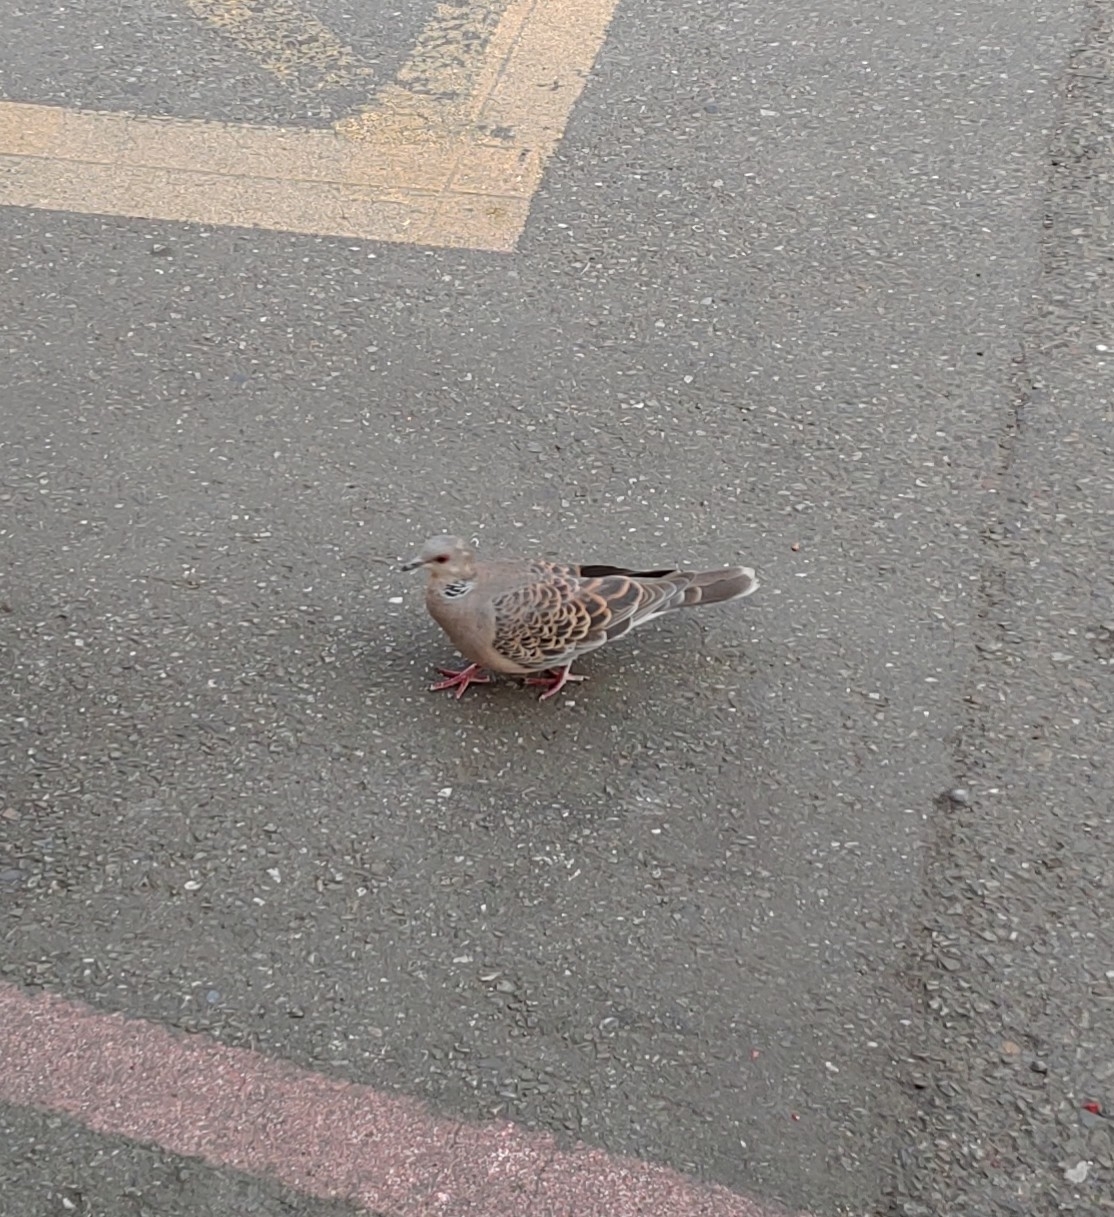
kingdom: Animalia
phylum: Chordata
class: Aves
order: Columbiformes
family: Columbidae
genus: Streptopelia
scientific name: Streptopelia orientalis
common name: Oriental turtle dove
